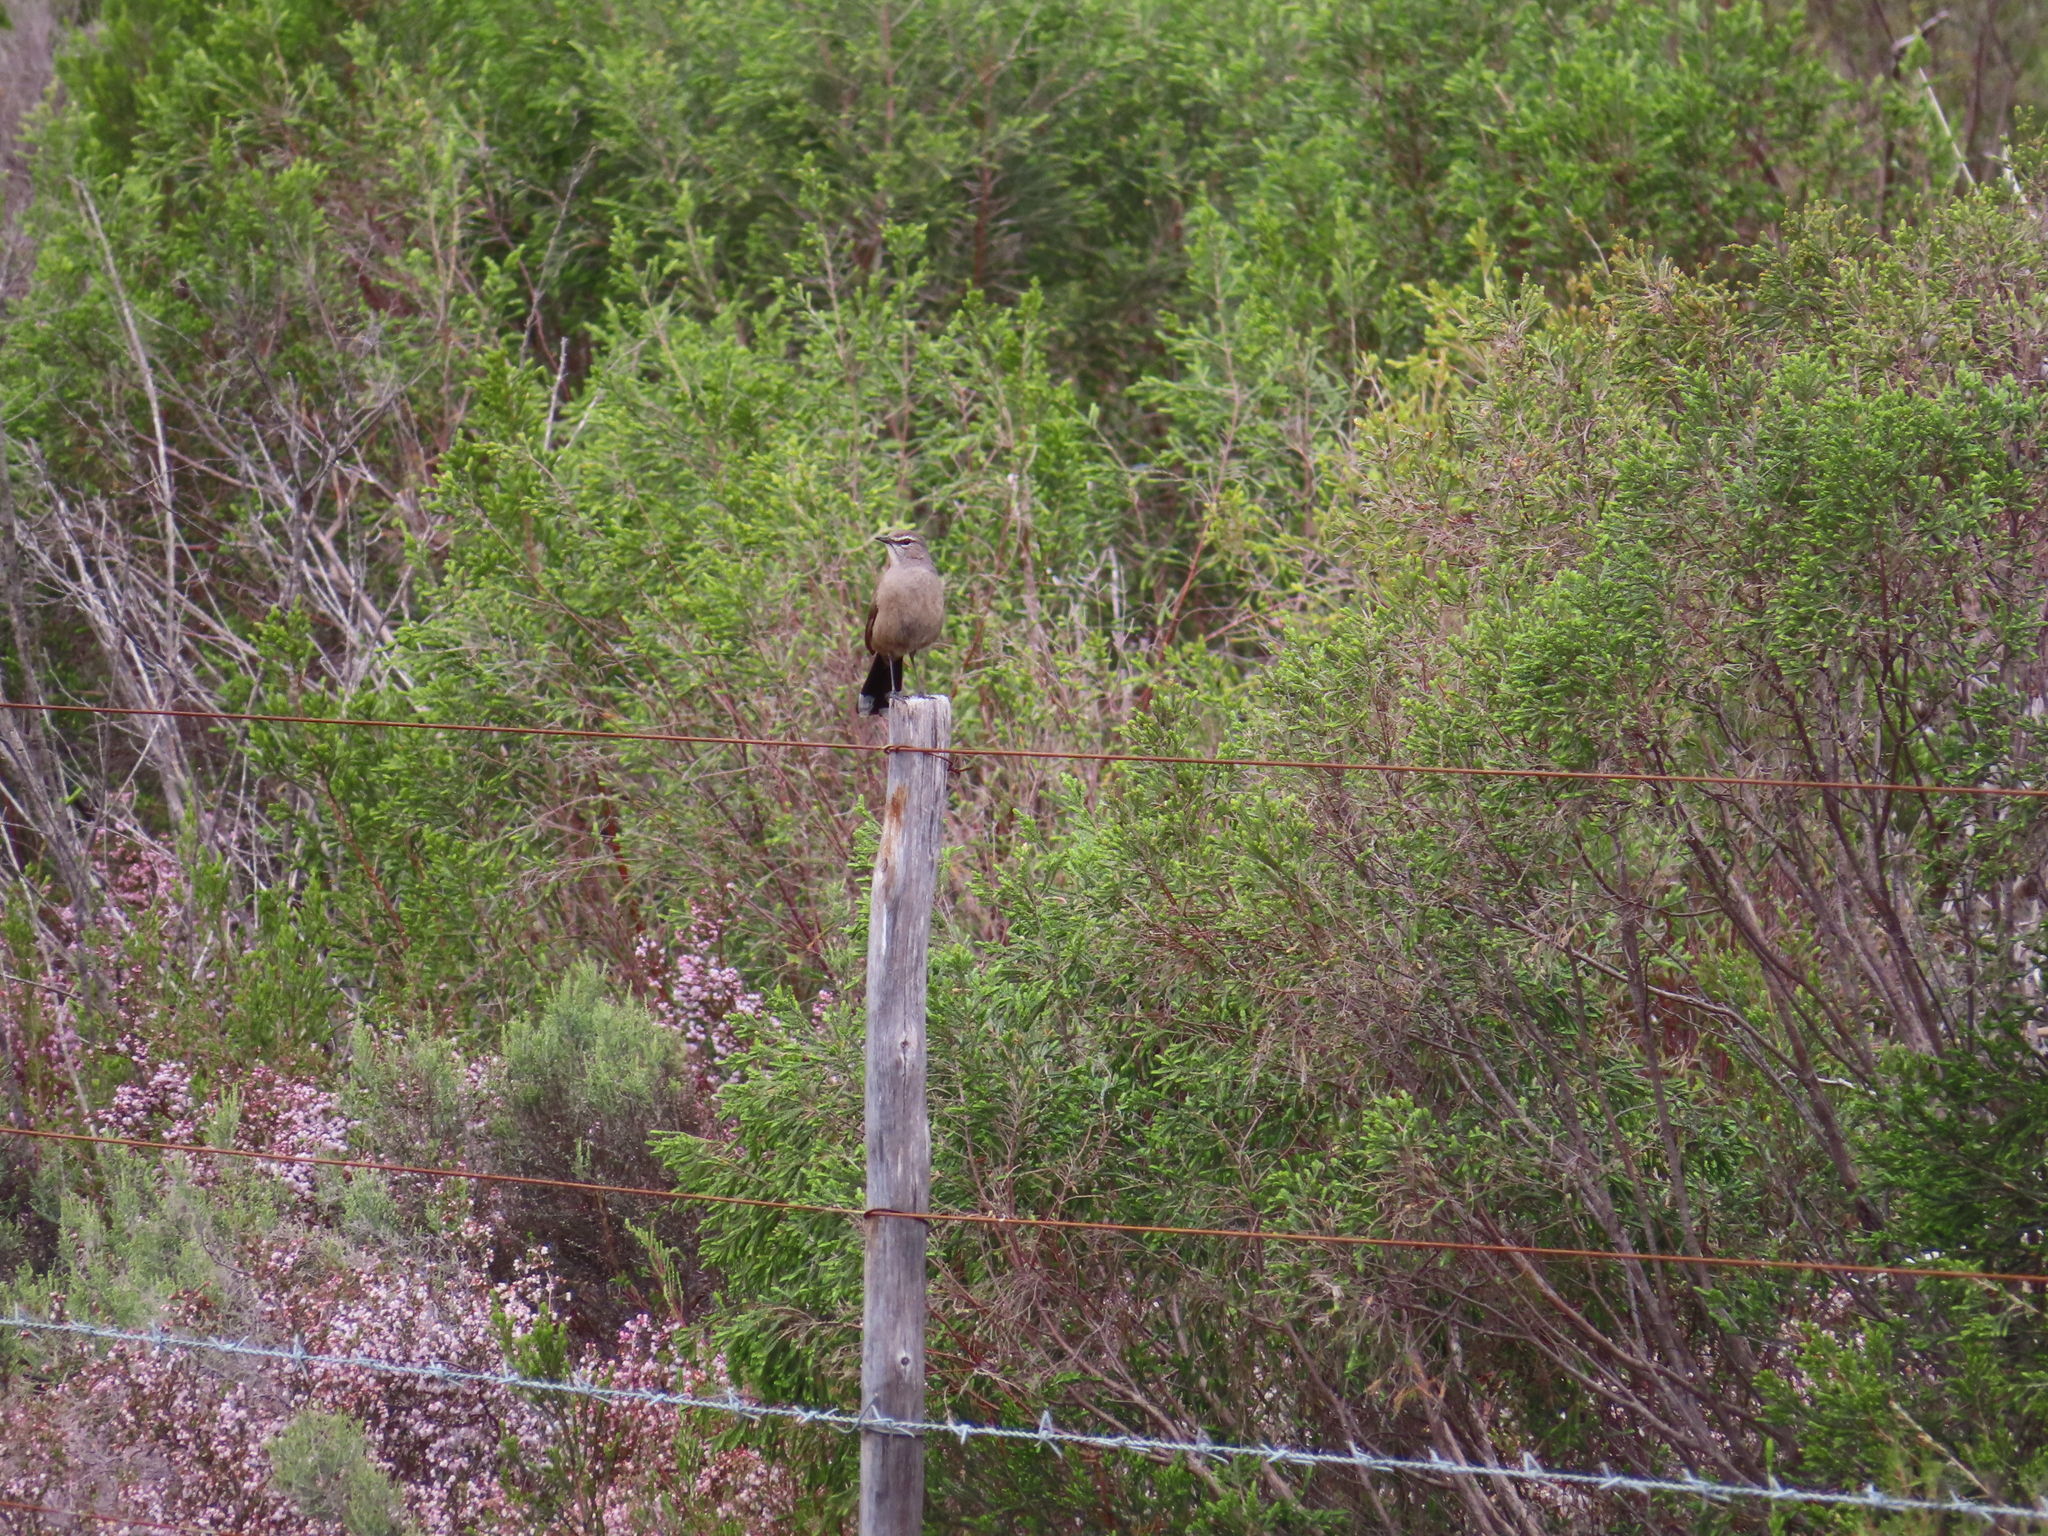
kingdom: Animalia
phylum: Chordata
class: Aves
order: Passeriformes
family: Muscicapidae
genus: Erythropygia
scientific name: Erythropygia coryphoeus
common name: Karoo scrub robin
